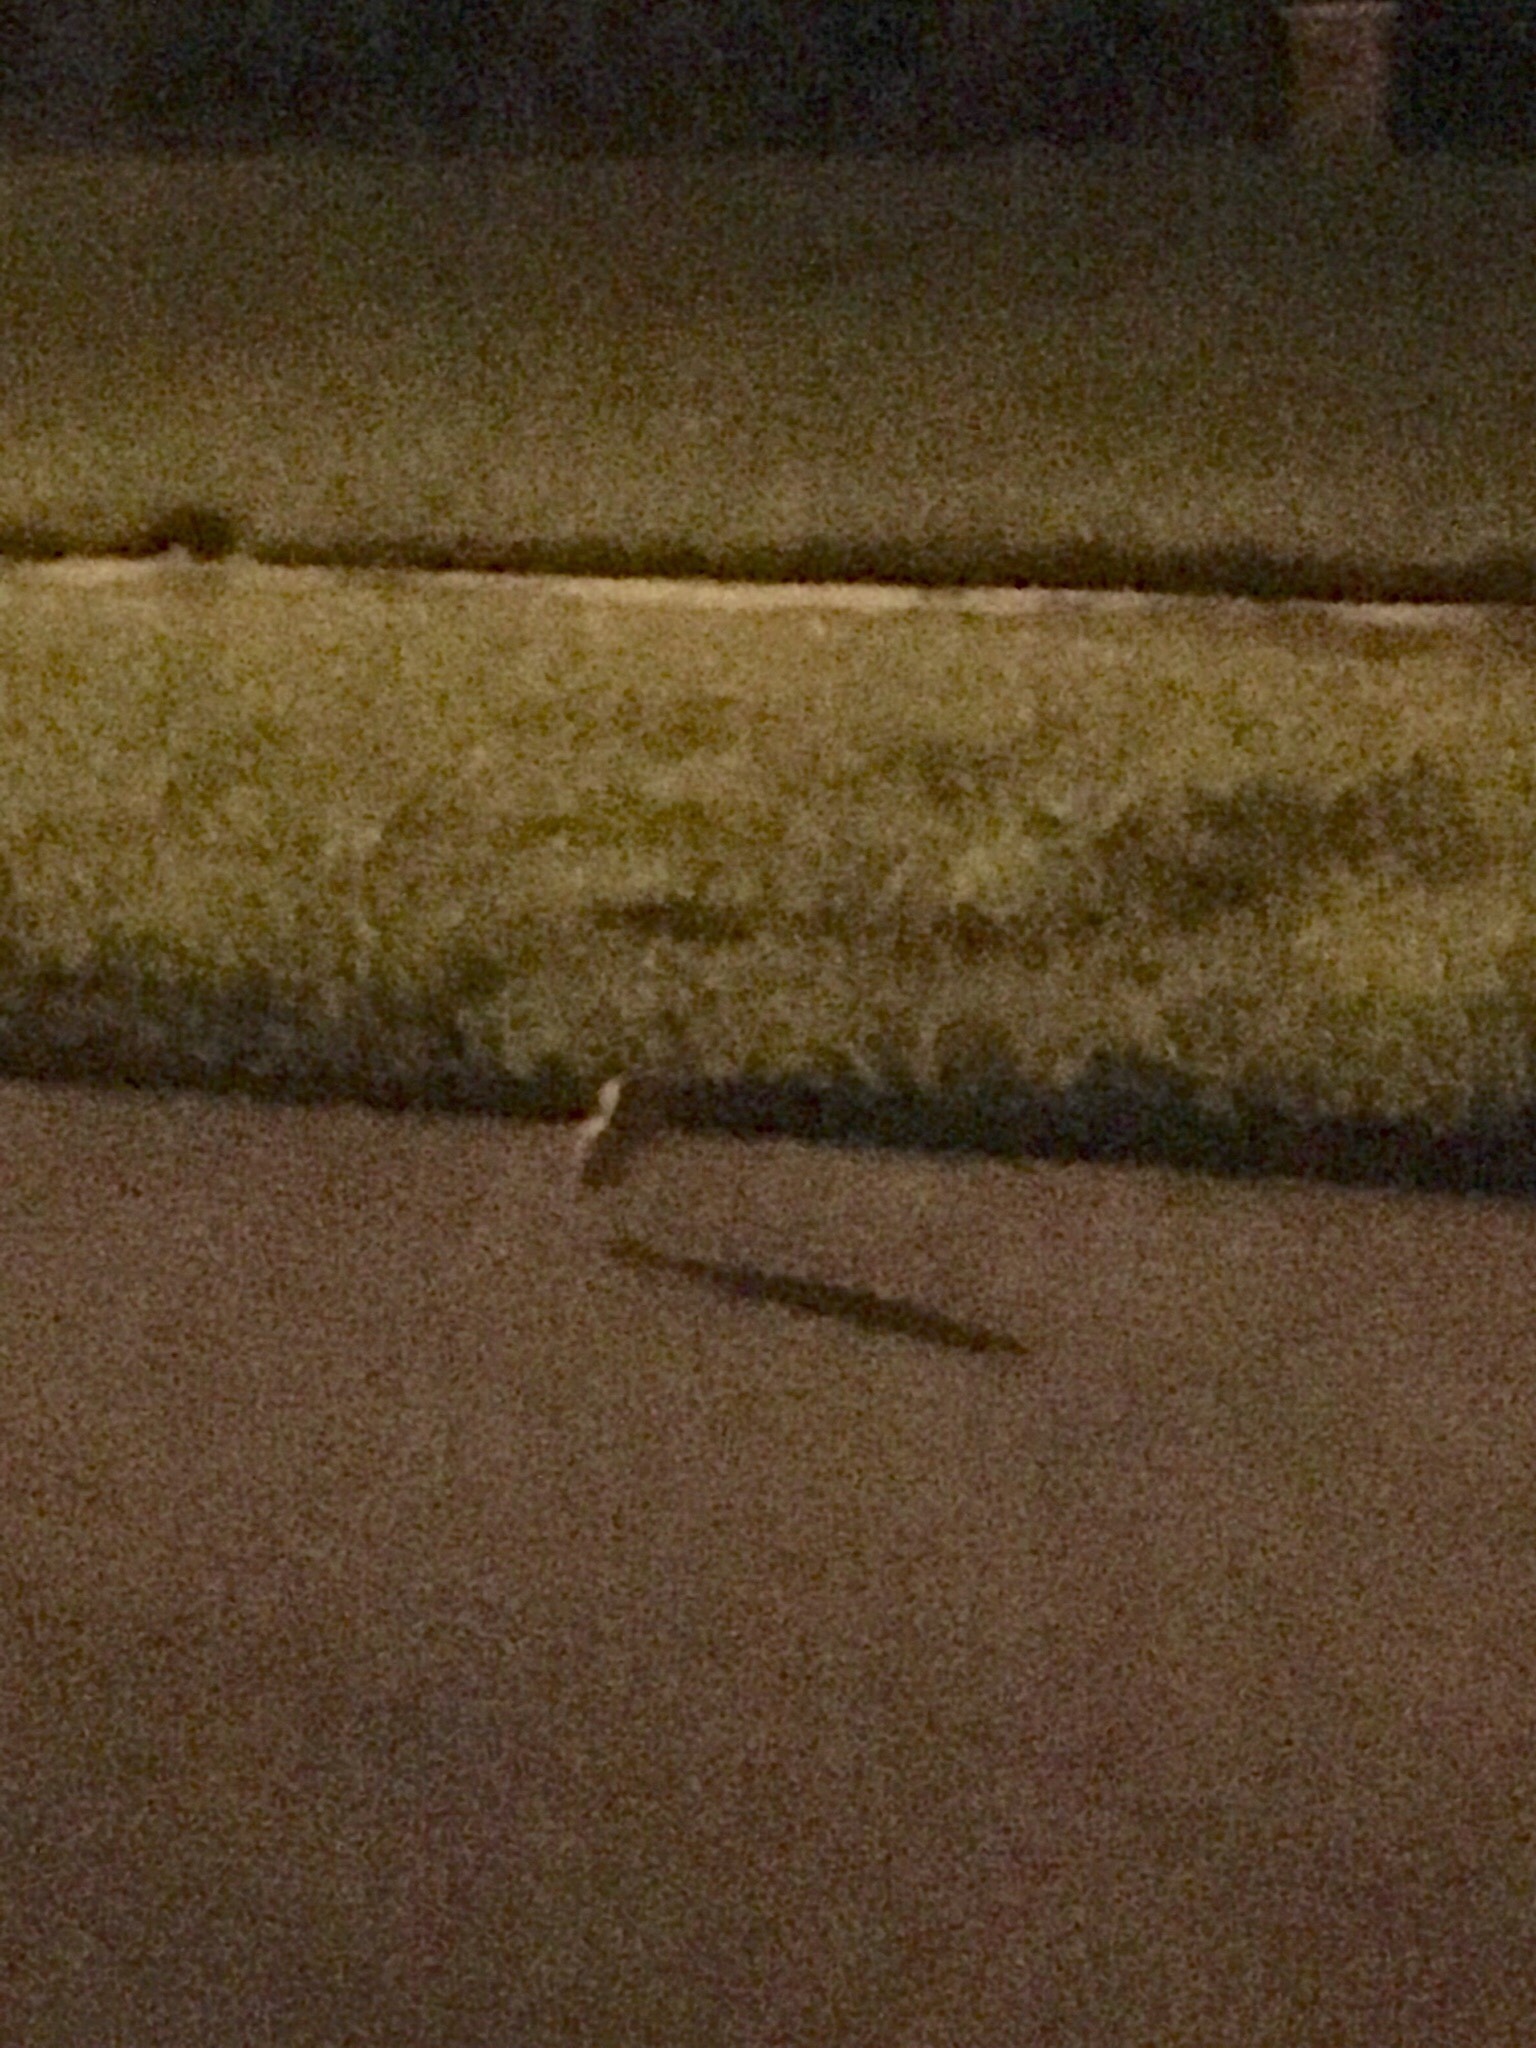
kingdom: Animalia
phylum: Chordata
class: Aves
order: Strigiformes
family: Strigidae
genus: Athene
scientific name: Athene cunicularia
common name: Burrowing owl
